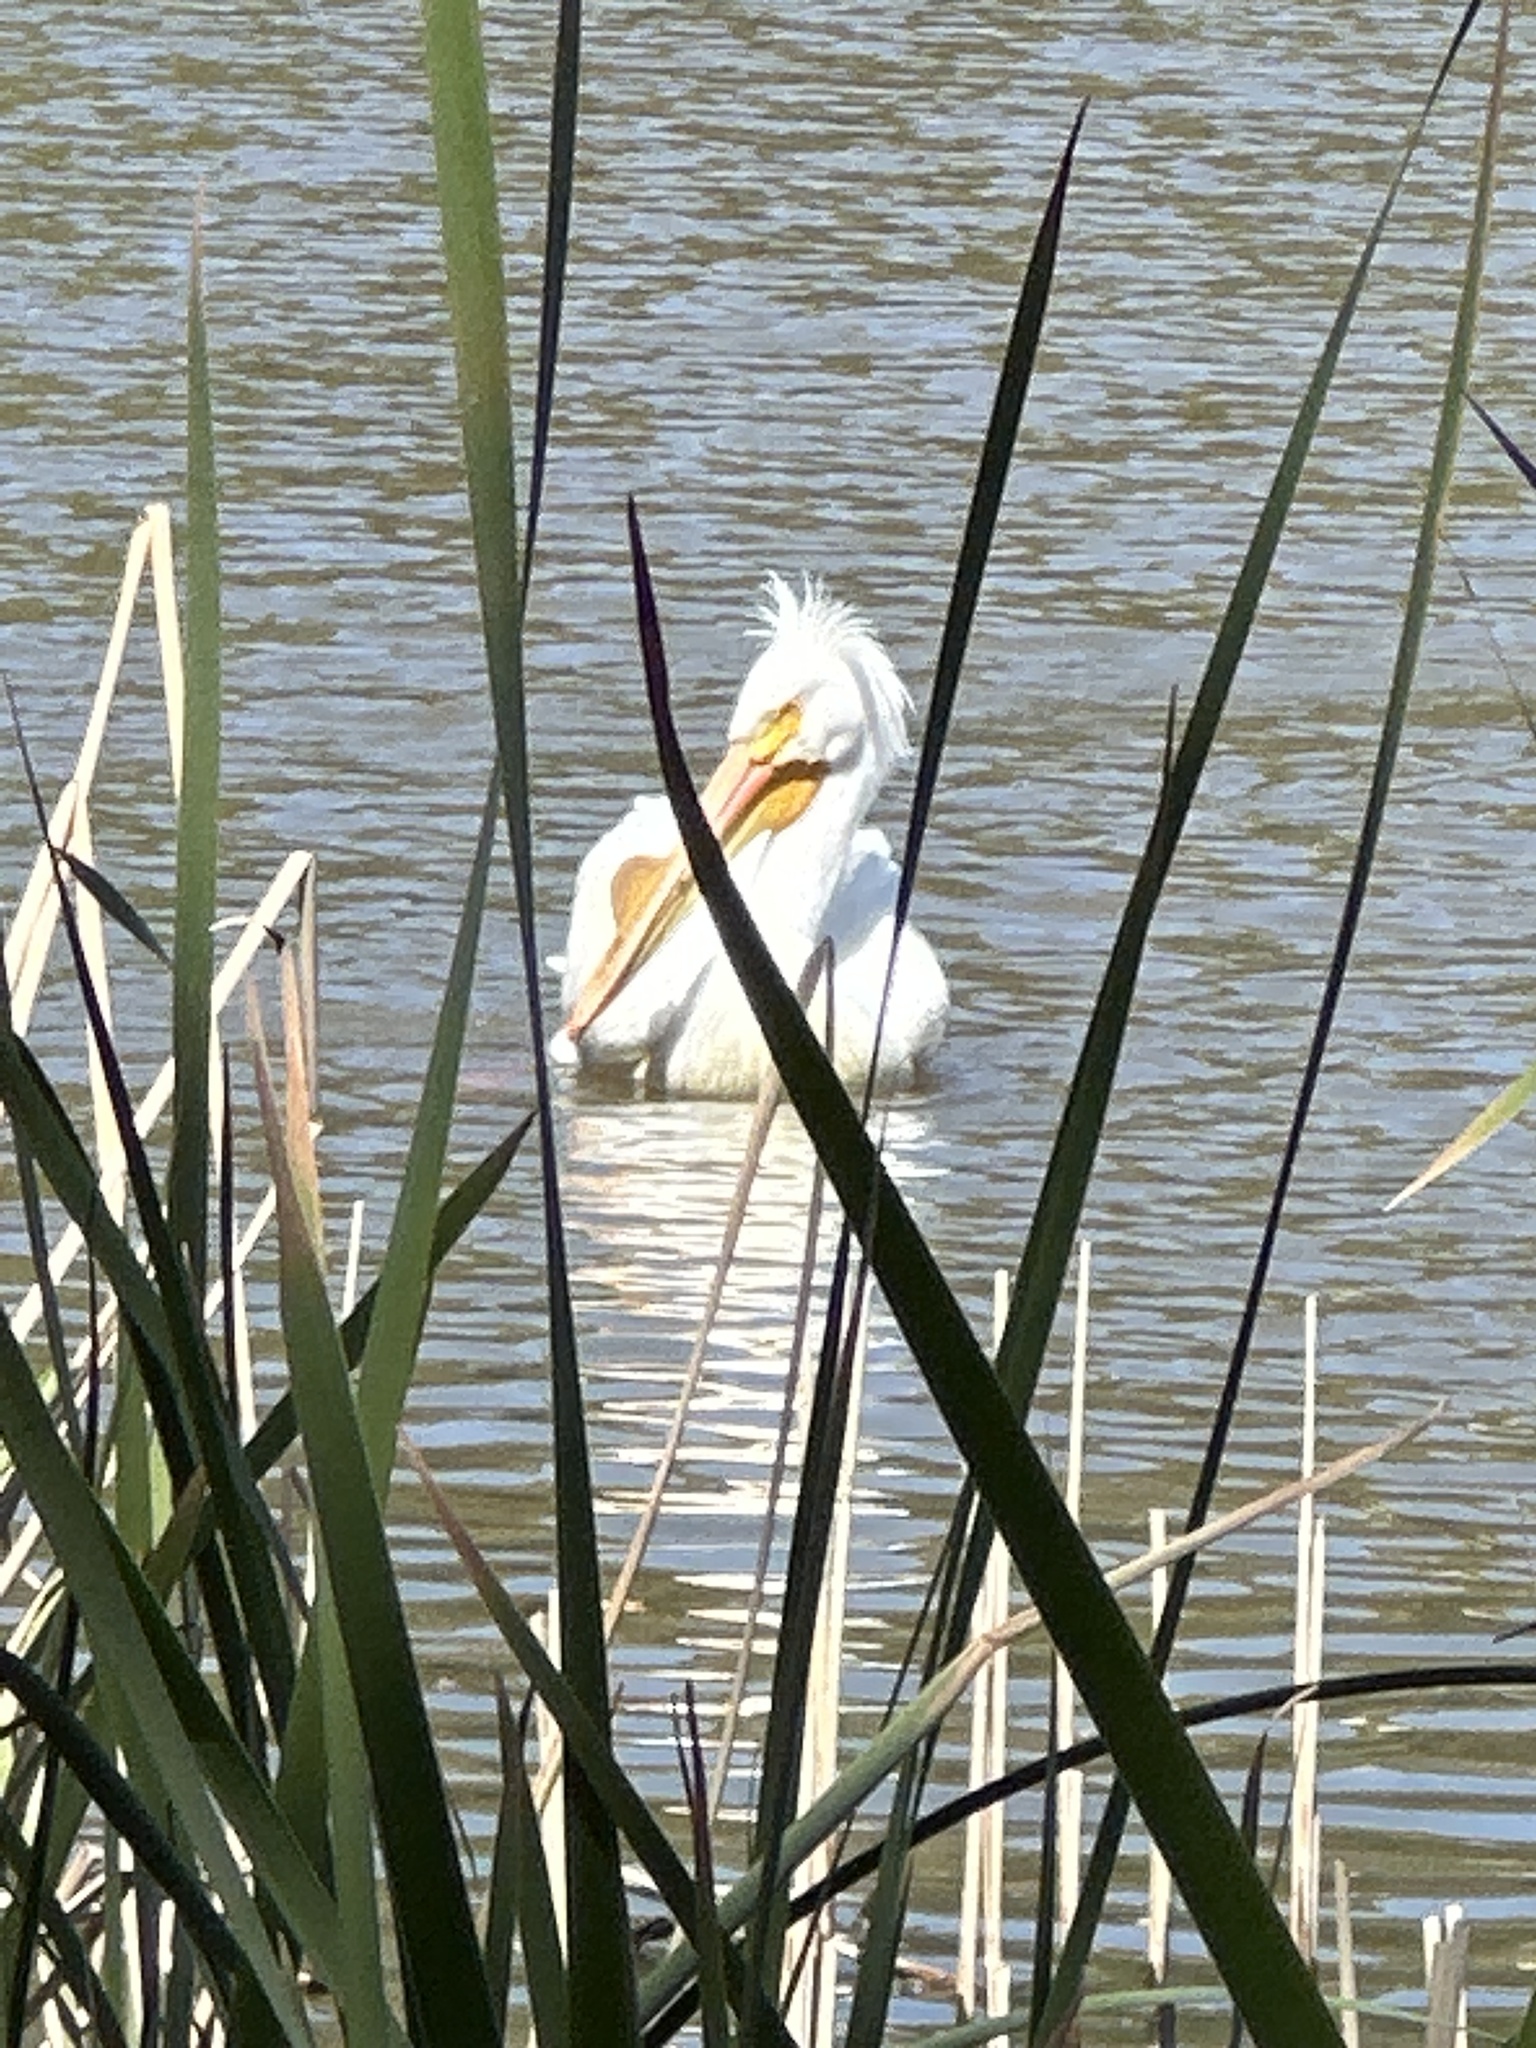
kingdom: Animalia
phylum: Chordata
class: Aves
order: Pelecaniformes
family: Pelecanidae
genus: Pelecanus
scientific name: Pelecanus erythrorhynchos
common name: American white pelican
